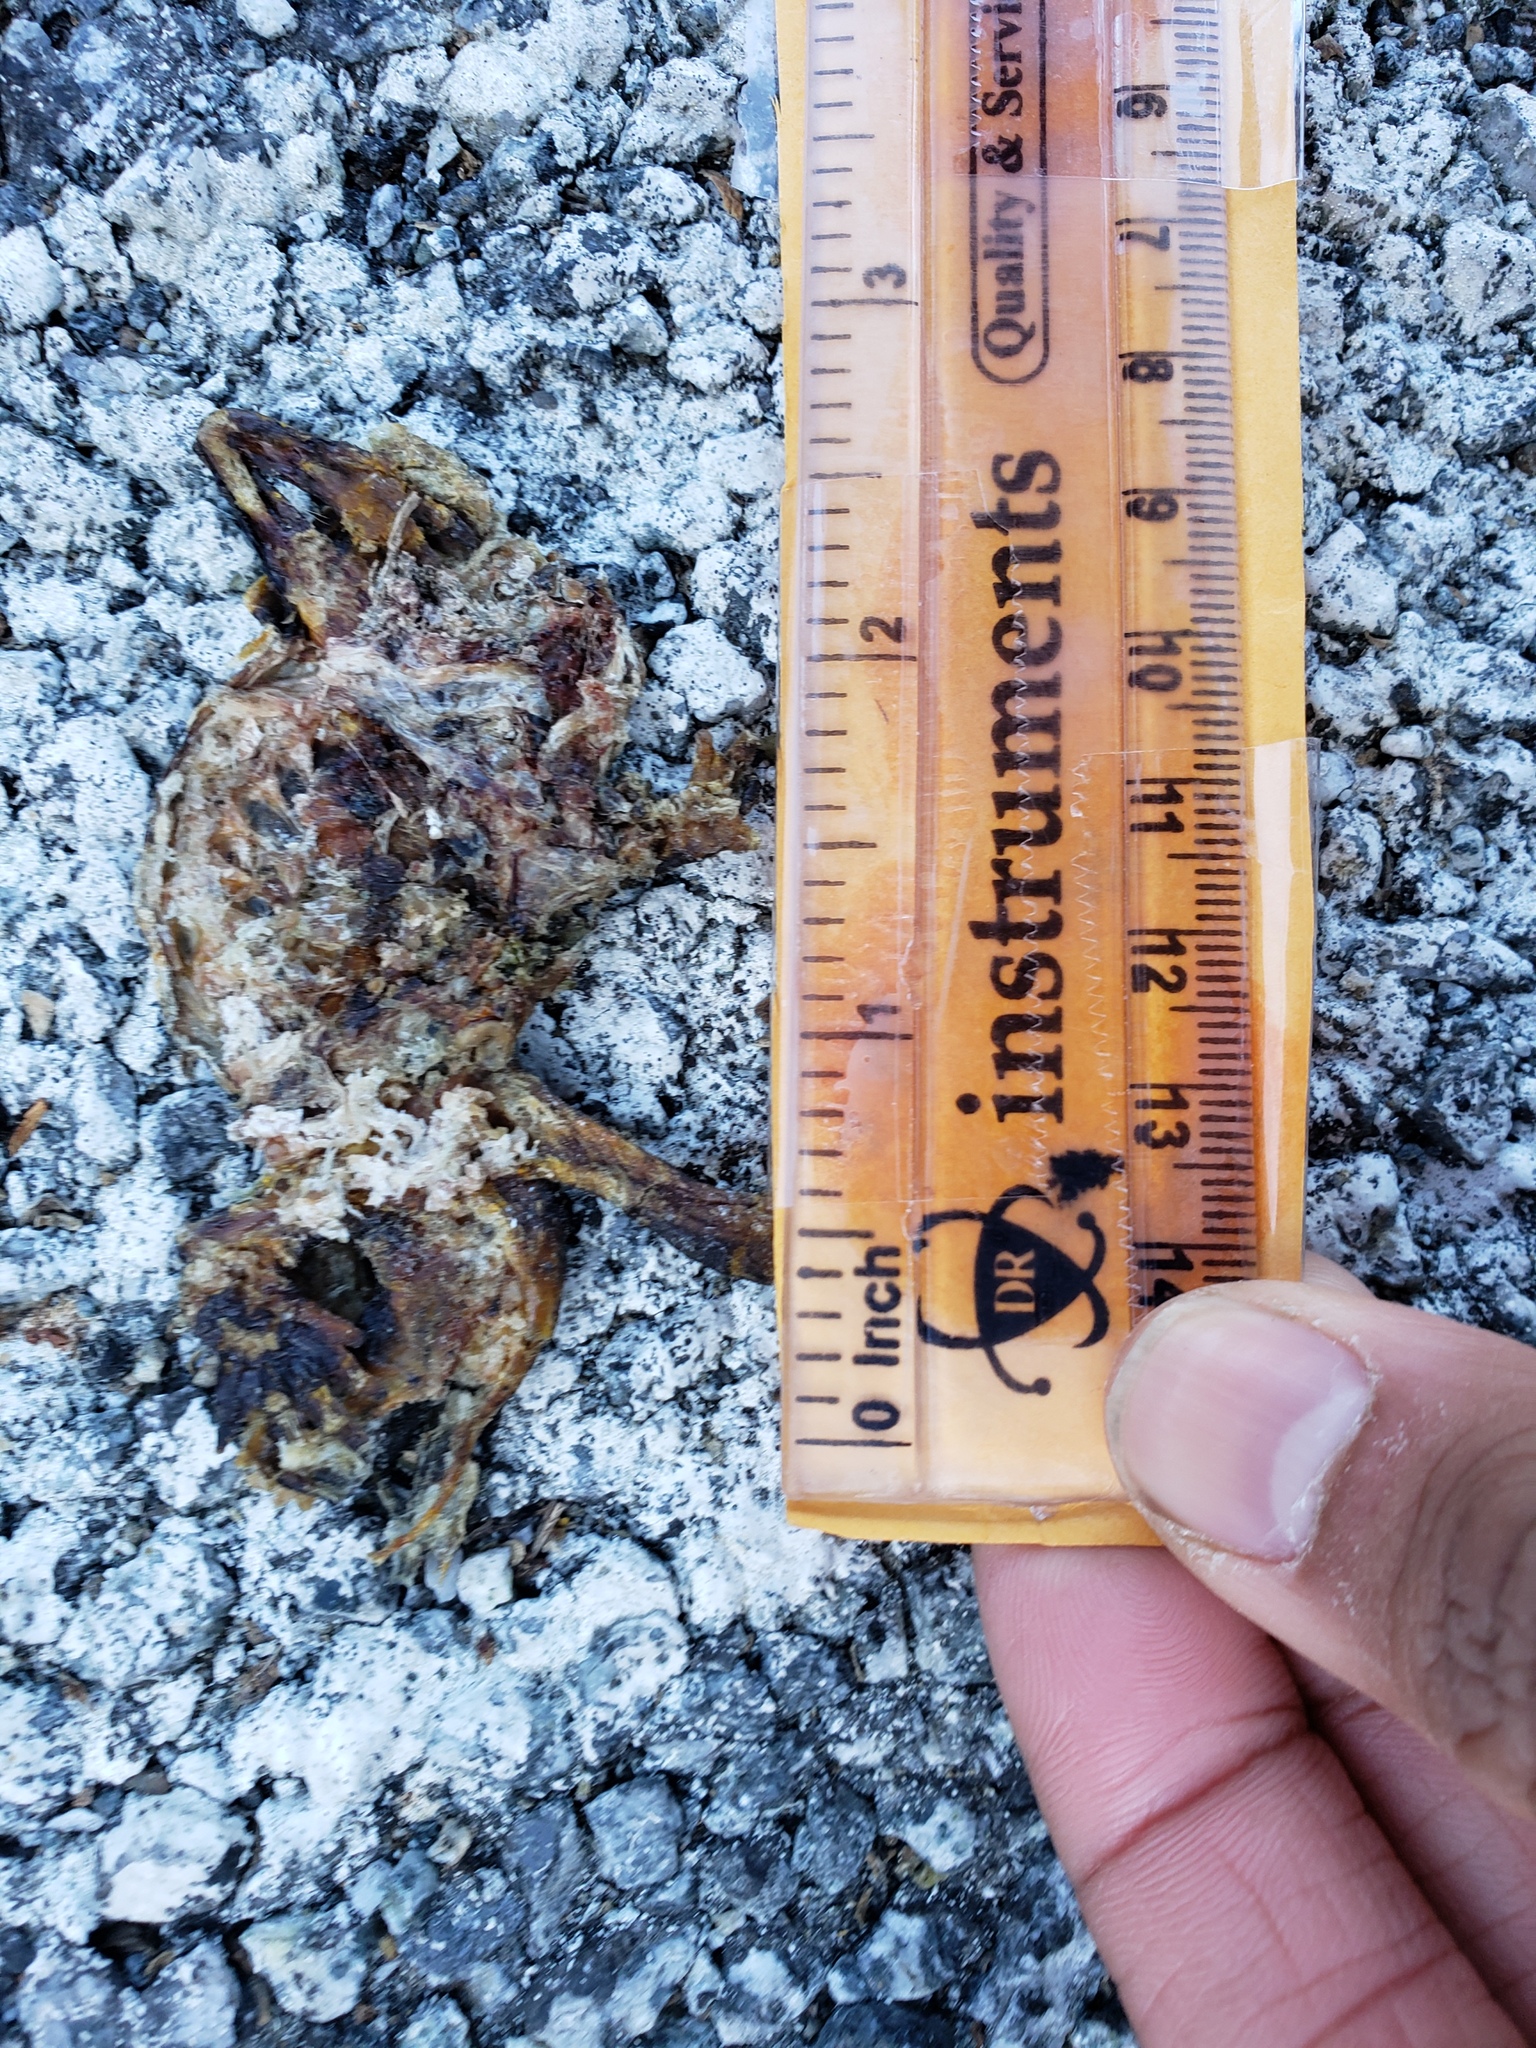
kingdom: Animalia
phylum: Chordata
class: Amphibia
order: Caudata
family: Salamandridae
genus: Taricha
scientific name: Taricha
